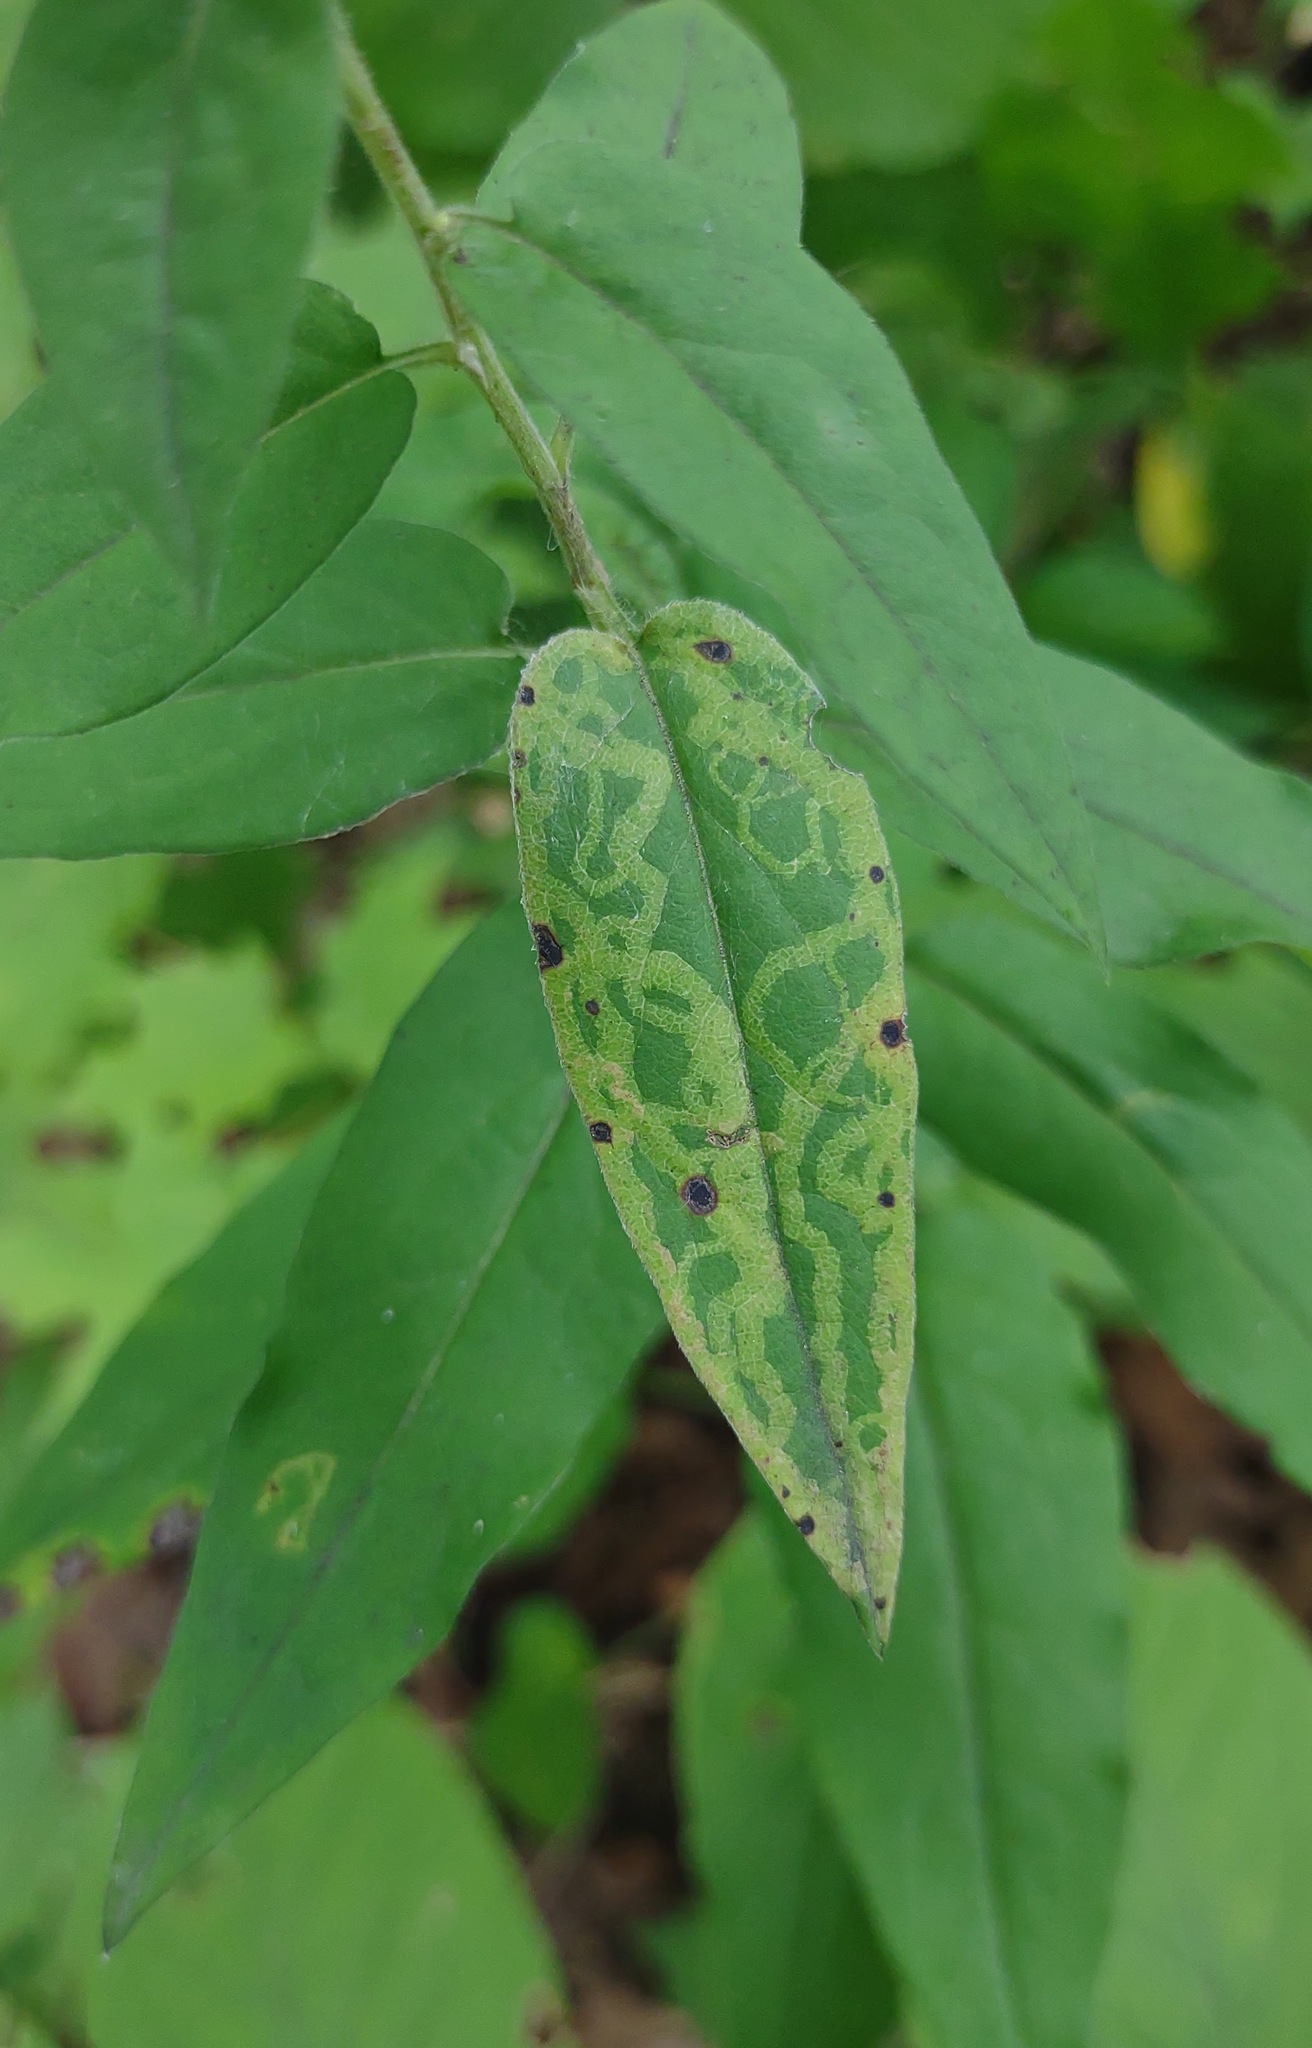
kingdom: Animalia
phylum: Arthropoda
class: Insecta
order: Diptera
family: Agromyzidae
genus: Ophiomyia
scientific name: Ophiomyia parda
